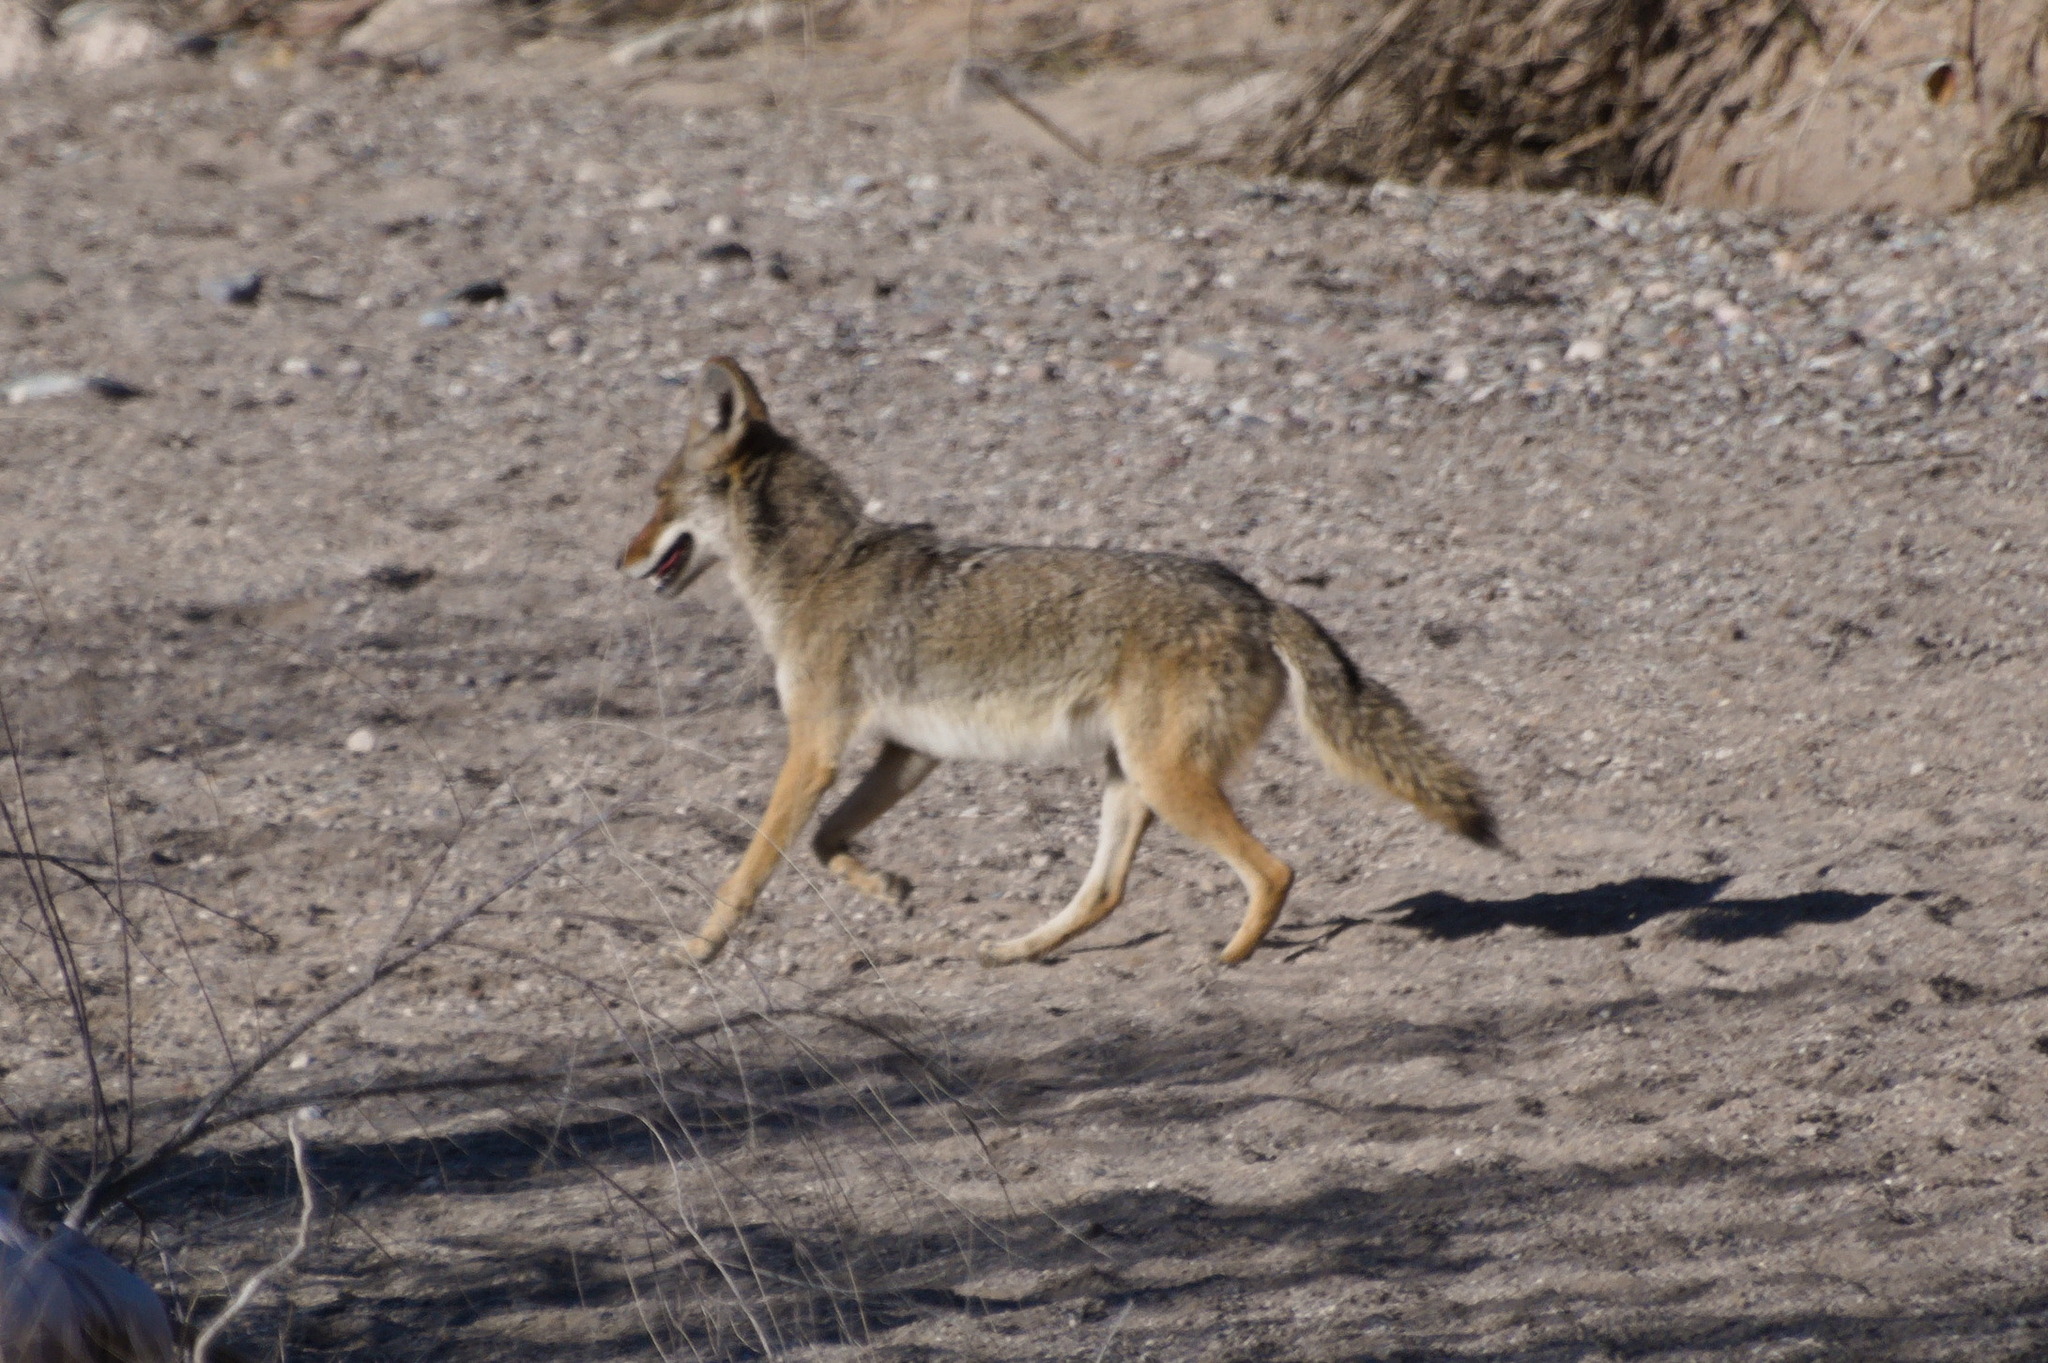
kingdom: Animalia
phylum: Chordata
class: Mammalia
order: Carnivora
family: Canidae
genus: Canis
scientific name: Canis latrans
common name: Coyote
